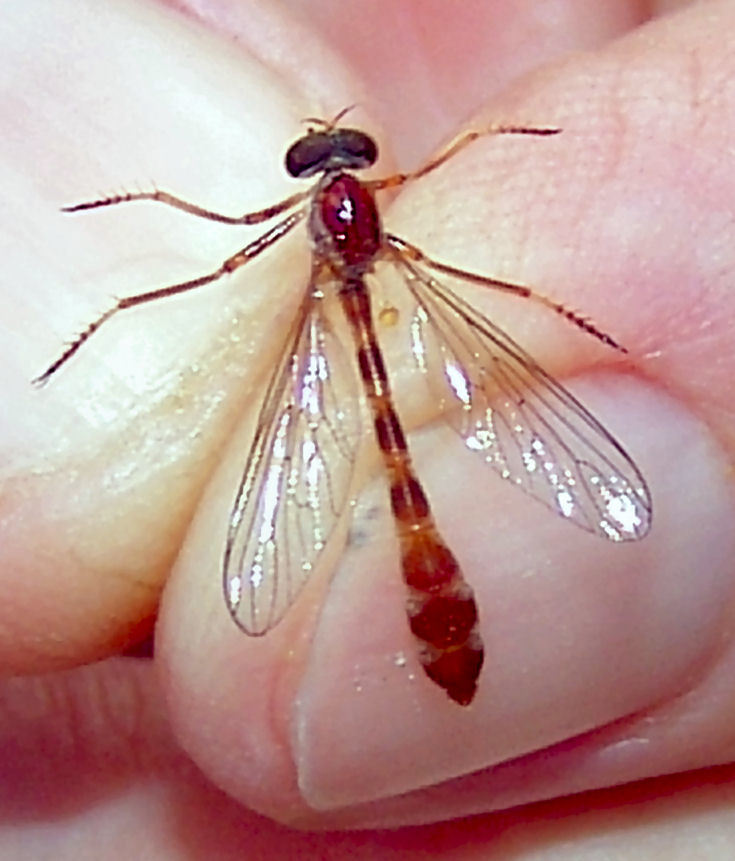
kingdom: Animalia
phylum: Arthropoda
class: Insecta
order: Diptera
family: Asilidae
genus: Tipulogaster
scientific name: Tipulogaster glabrata
